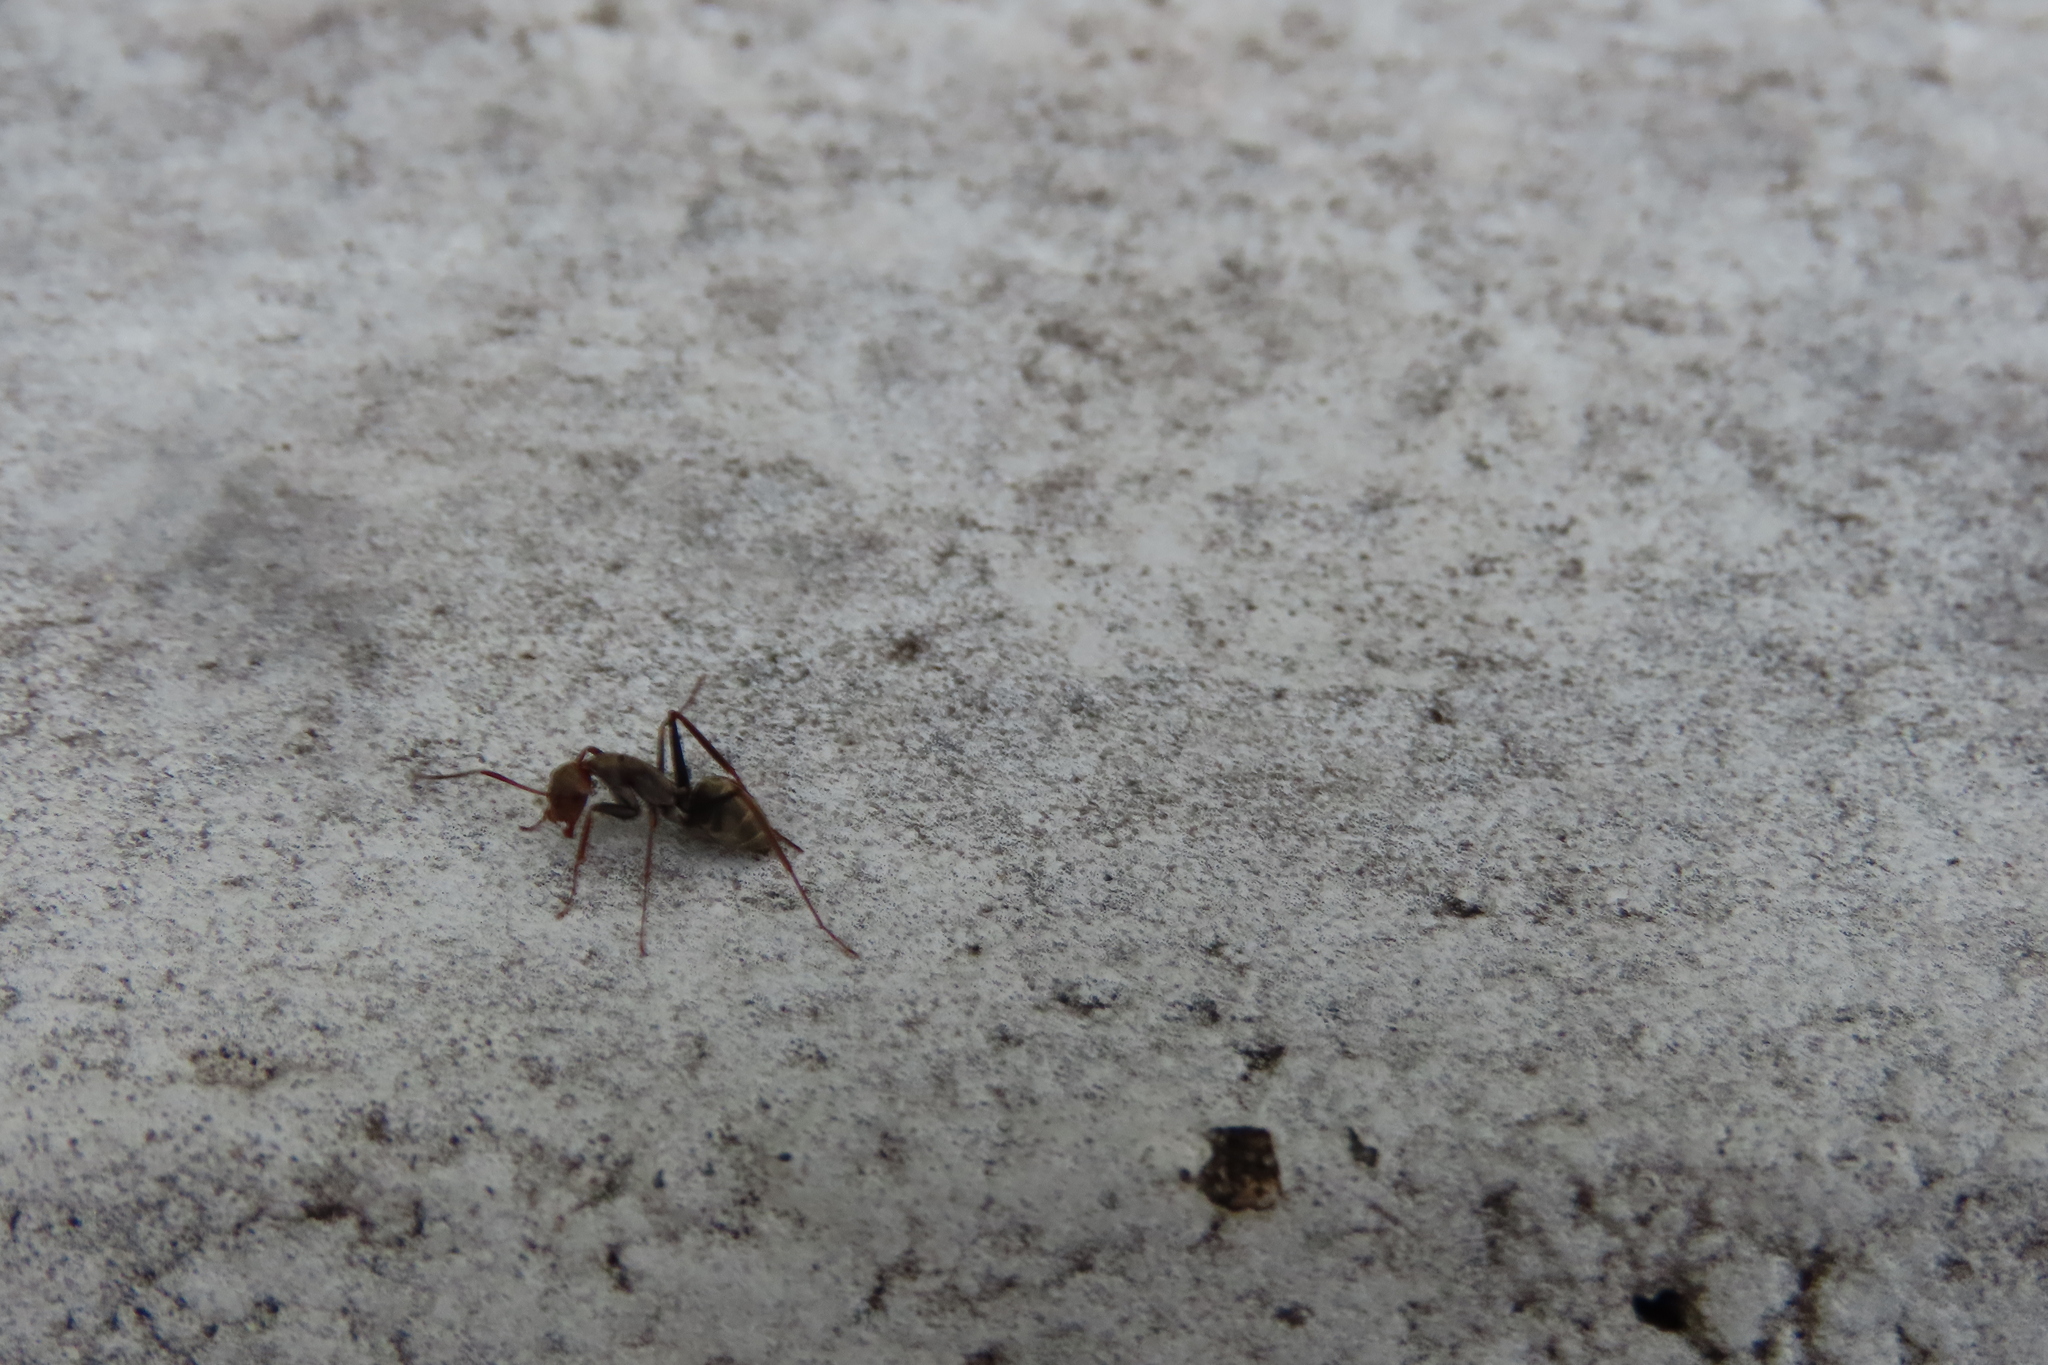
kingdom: Animalia
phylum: Arthropoda
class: Insecta
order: Hymenoptera
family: Formicidae
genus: Camponotus
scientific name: Camponotus rufoglaucus
